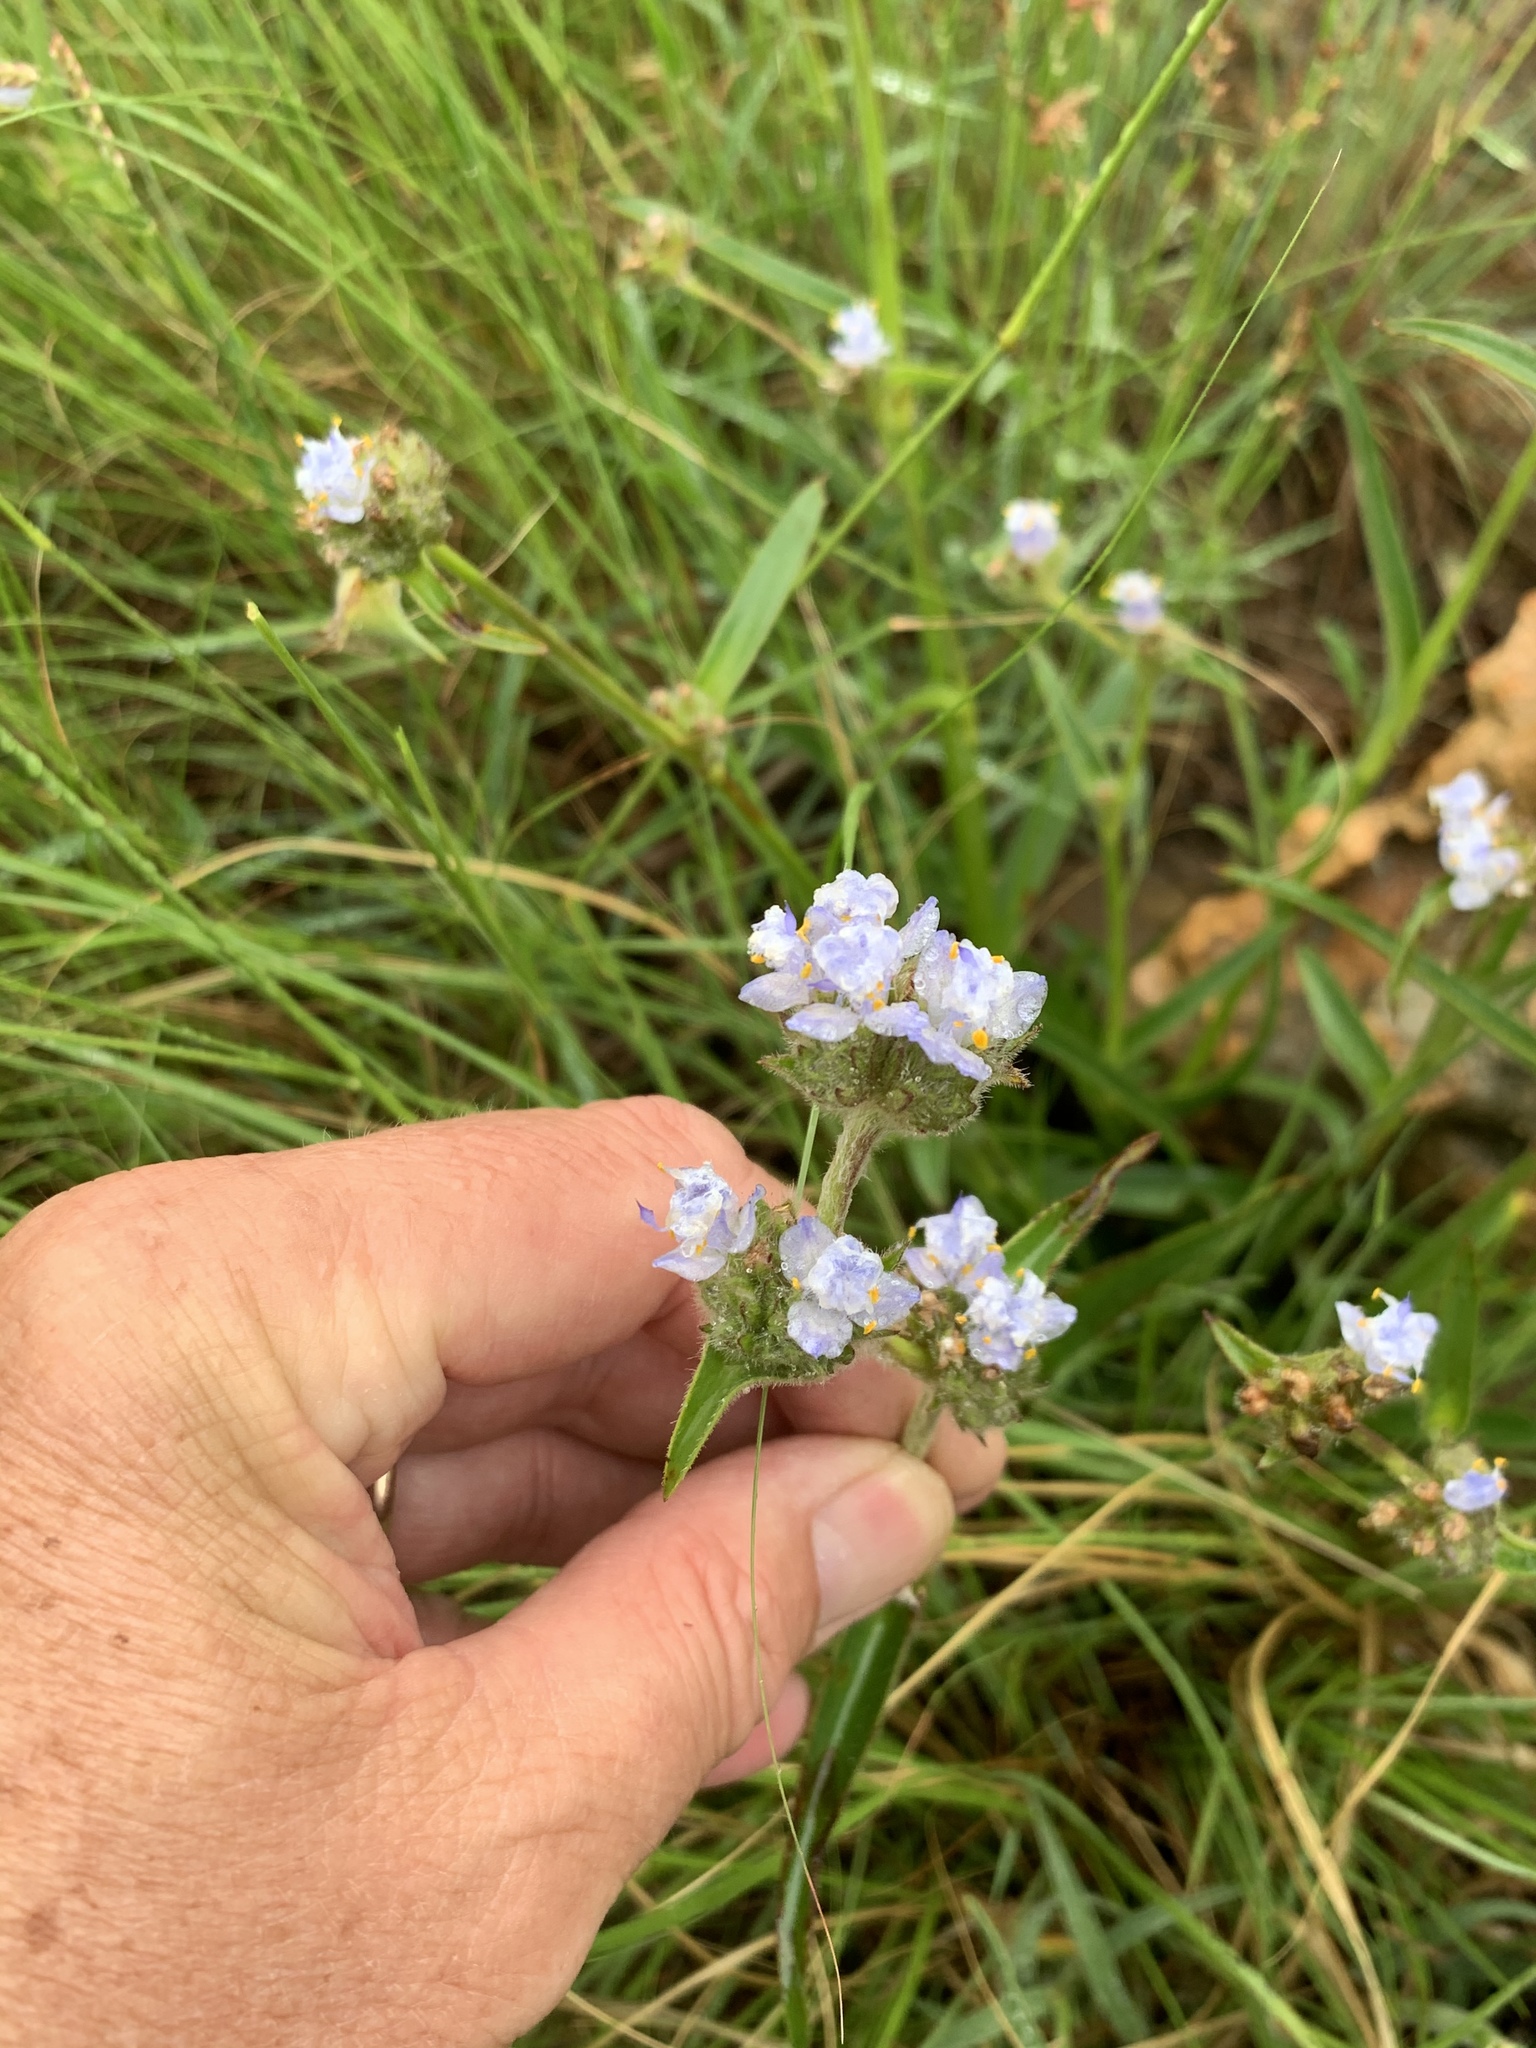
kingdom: Plantae
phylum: Tracheophyta
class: Liliopsida
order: Commelinales
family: Commelinaceae
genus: Cyanotis
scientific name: Cyanotis speciosa
